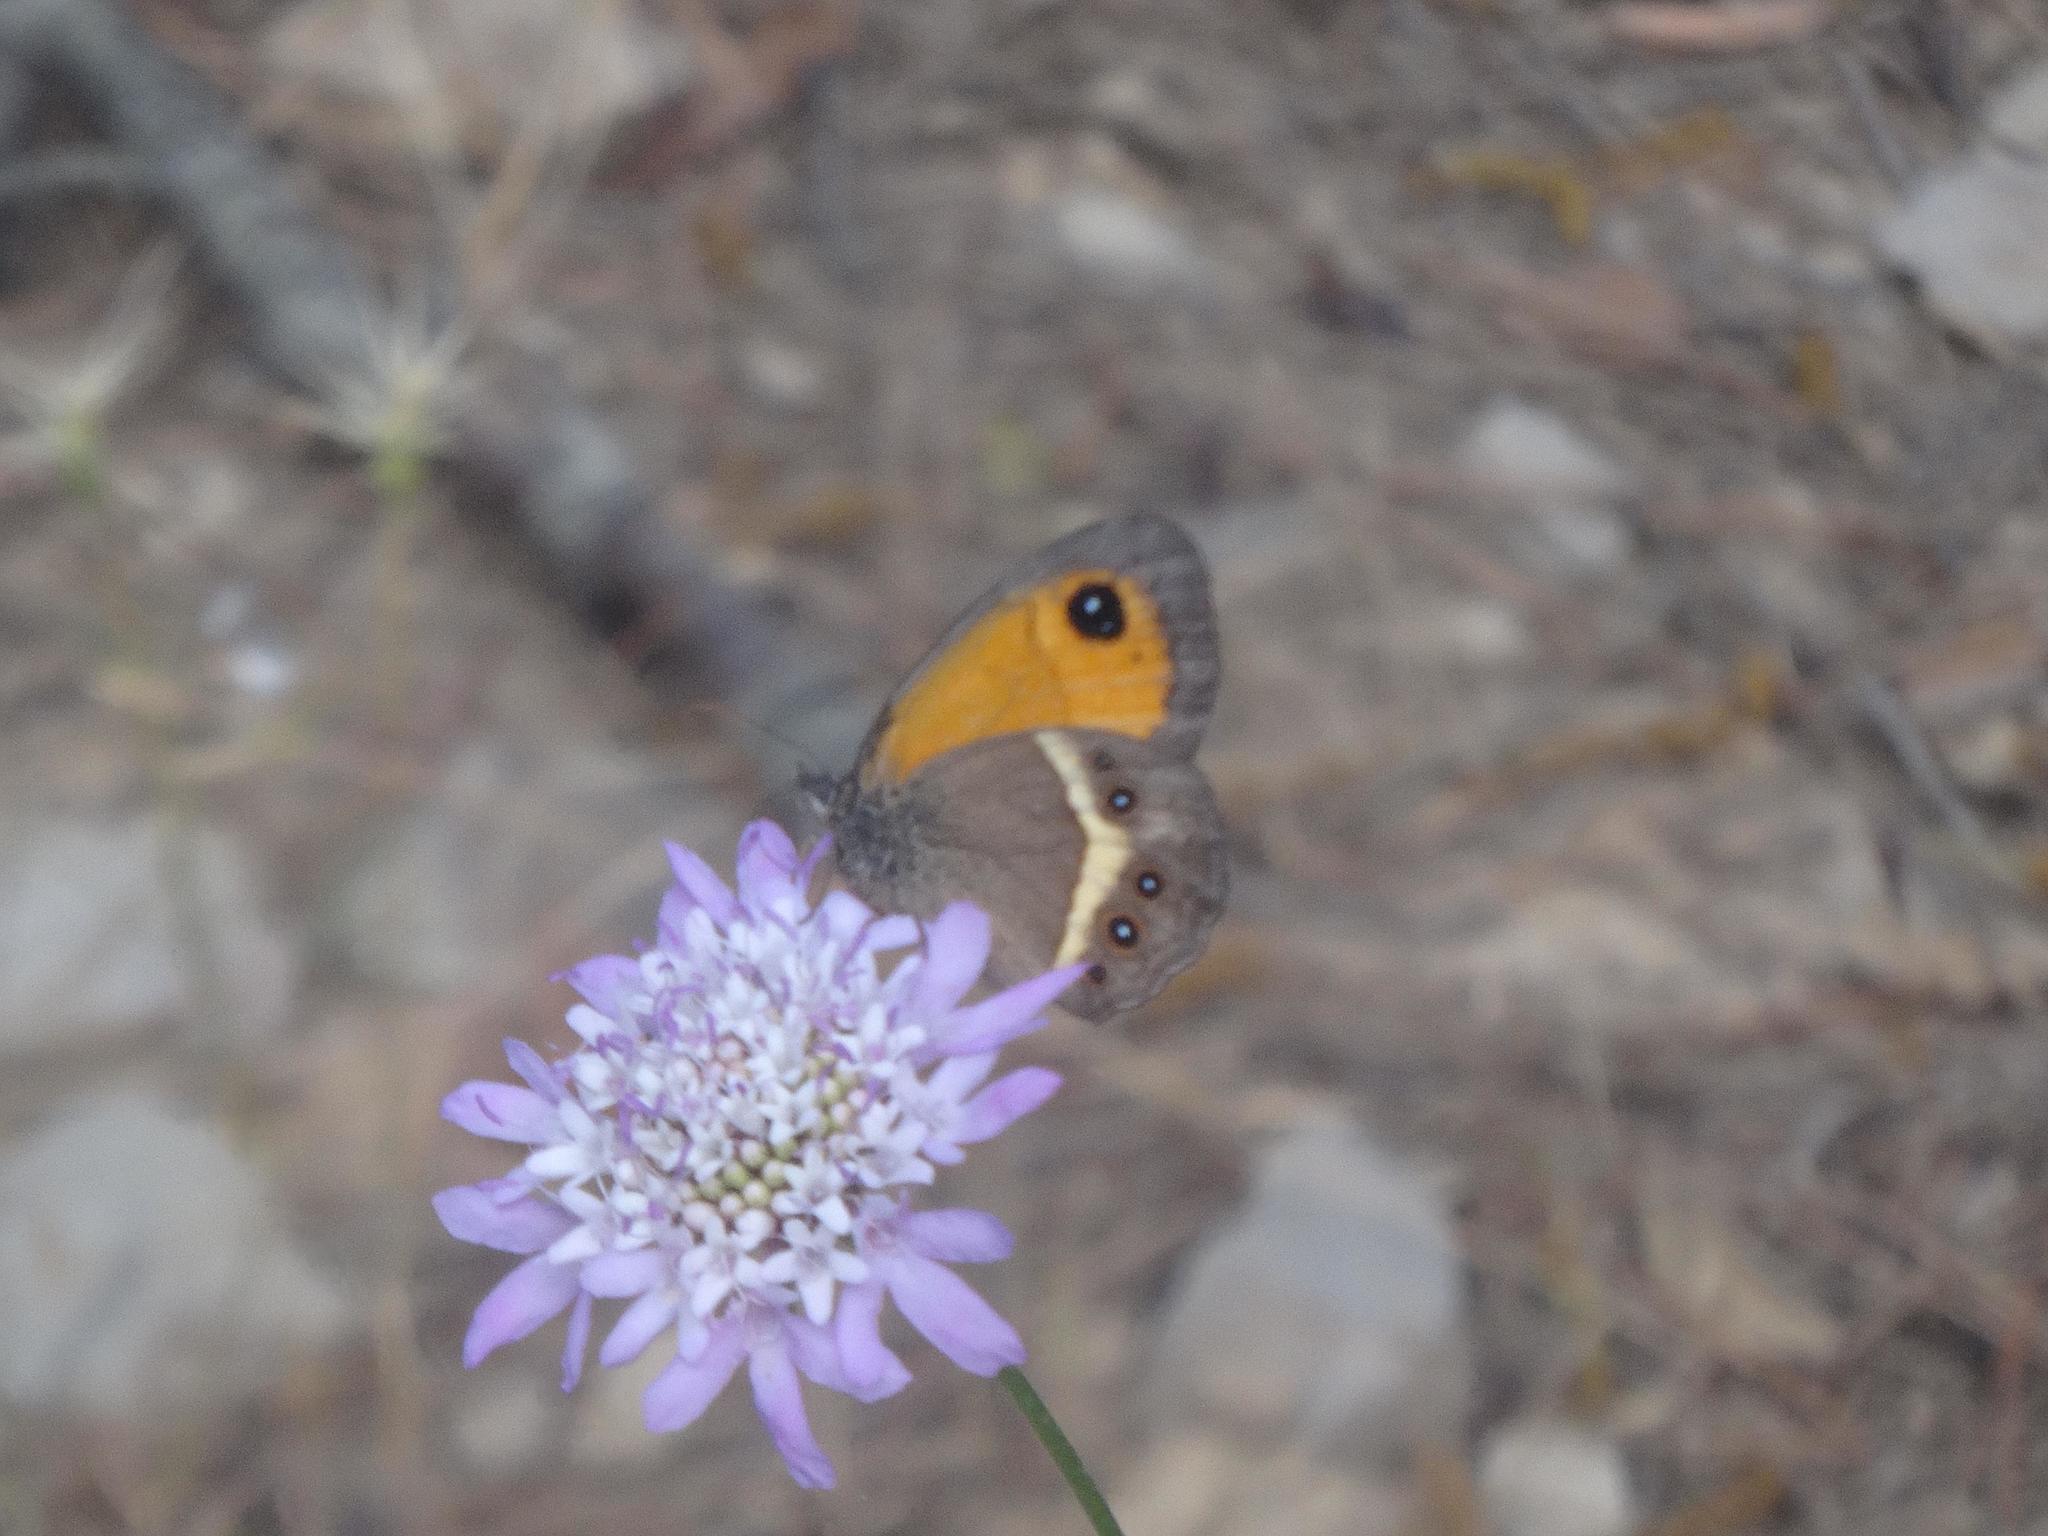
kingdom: Animalia
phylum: Arthropoda
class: Insecta
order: Lepidoptera
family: Nymphalidae
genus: Pyronia
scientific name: Pyronia bathseba
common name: Spanish gatekeeper
